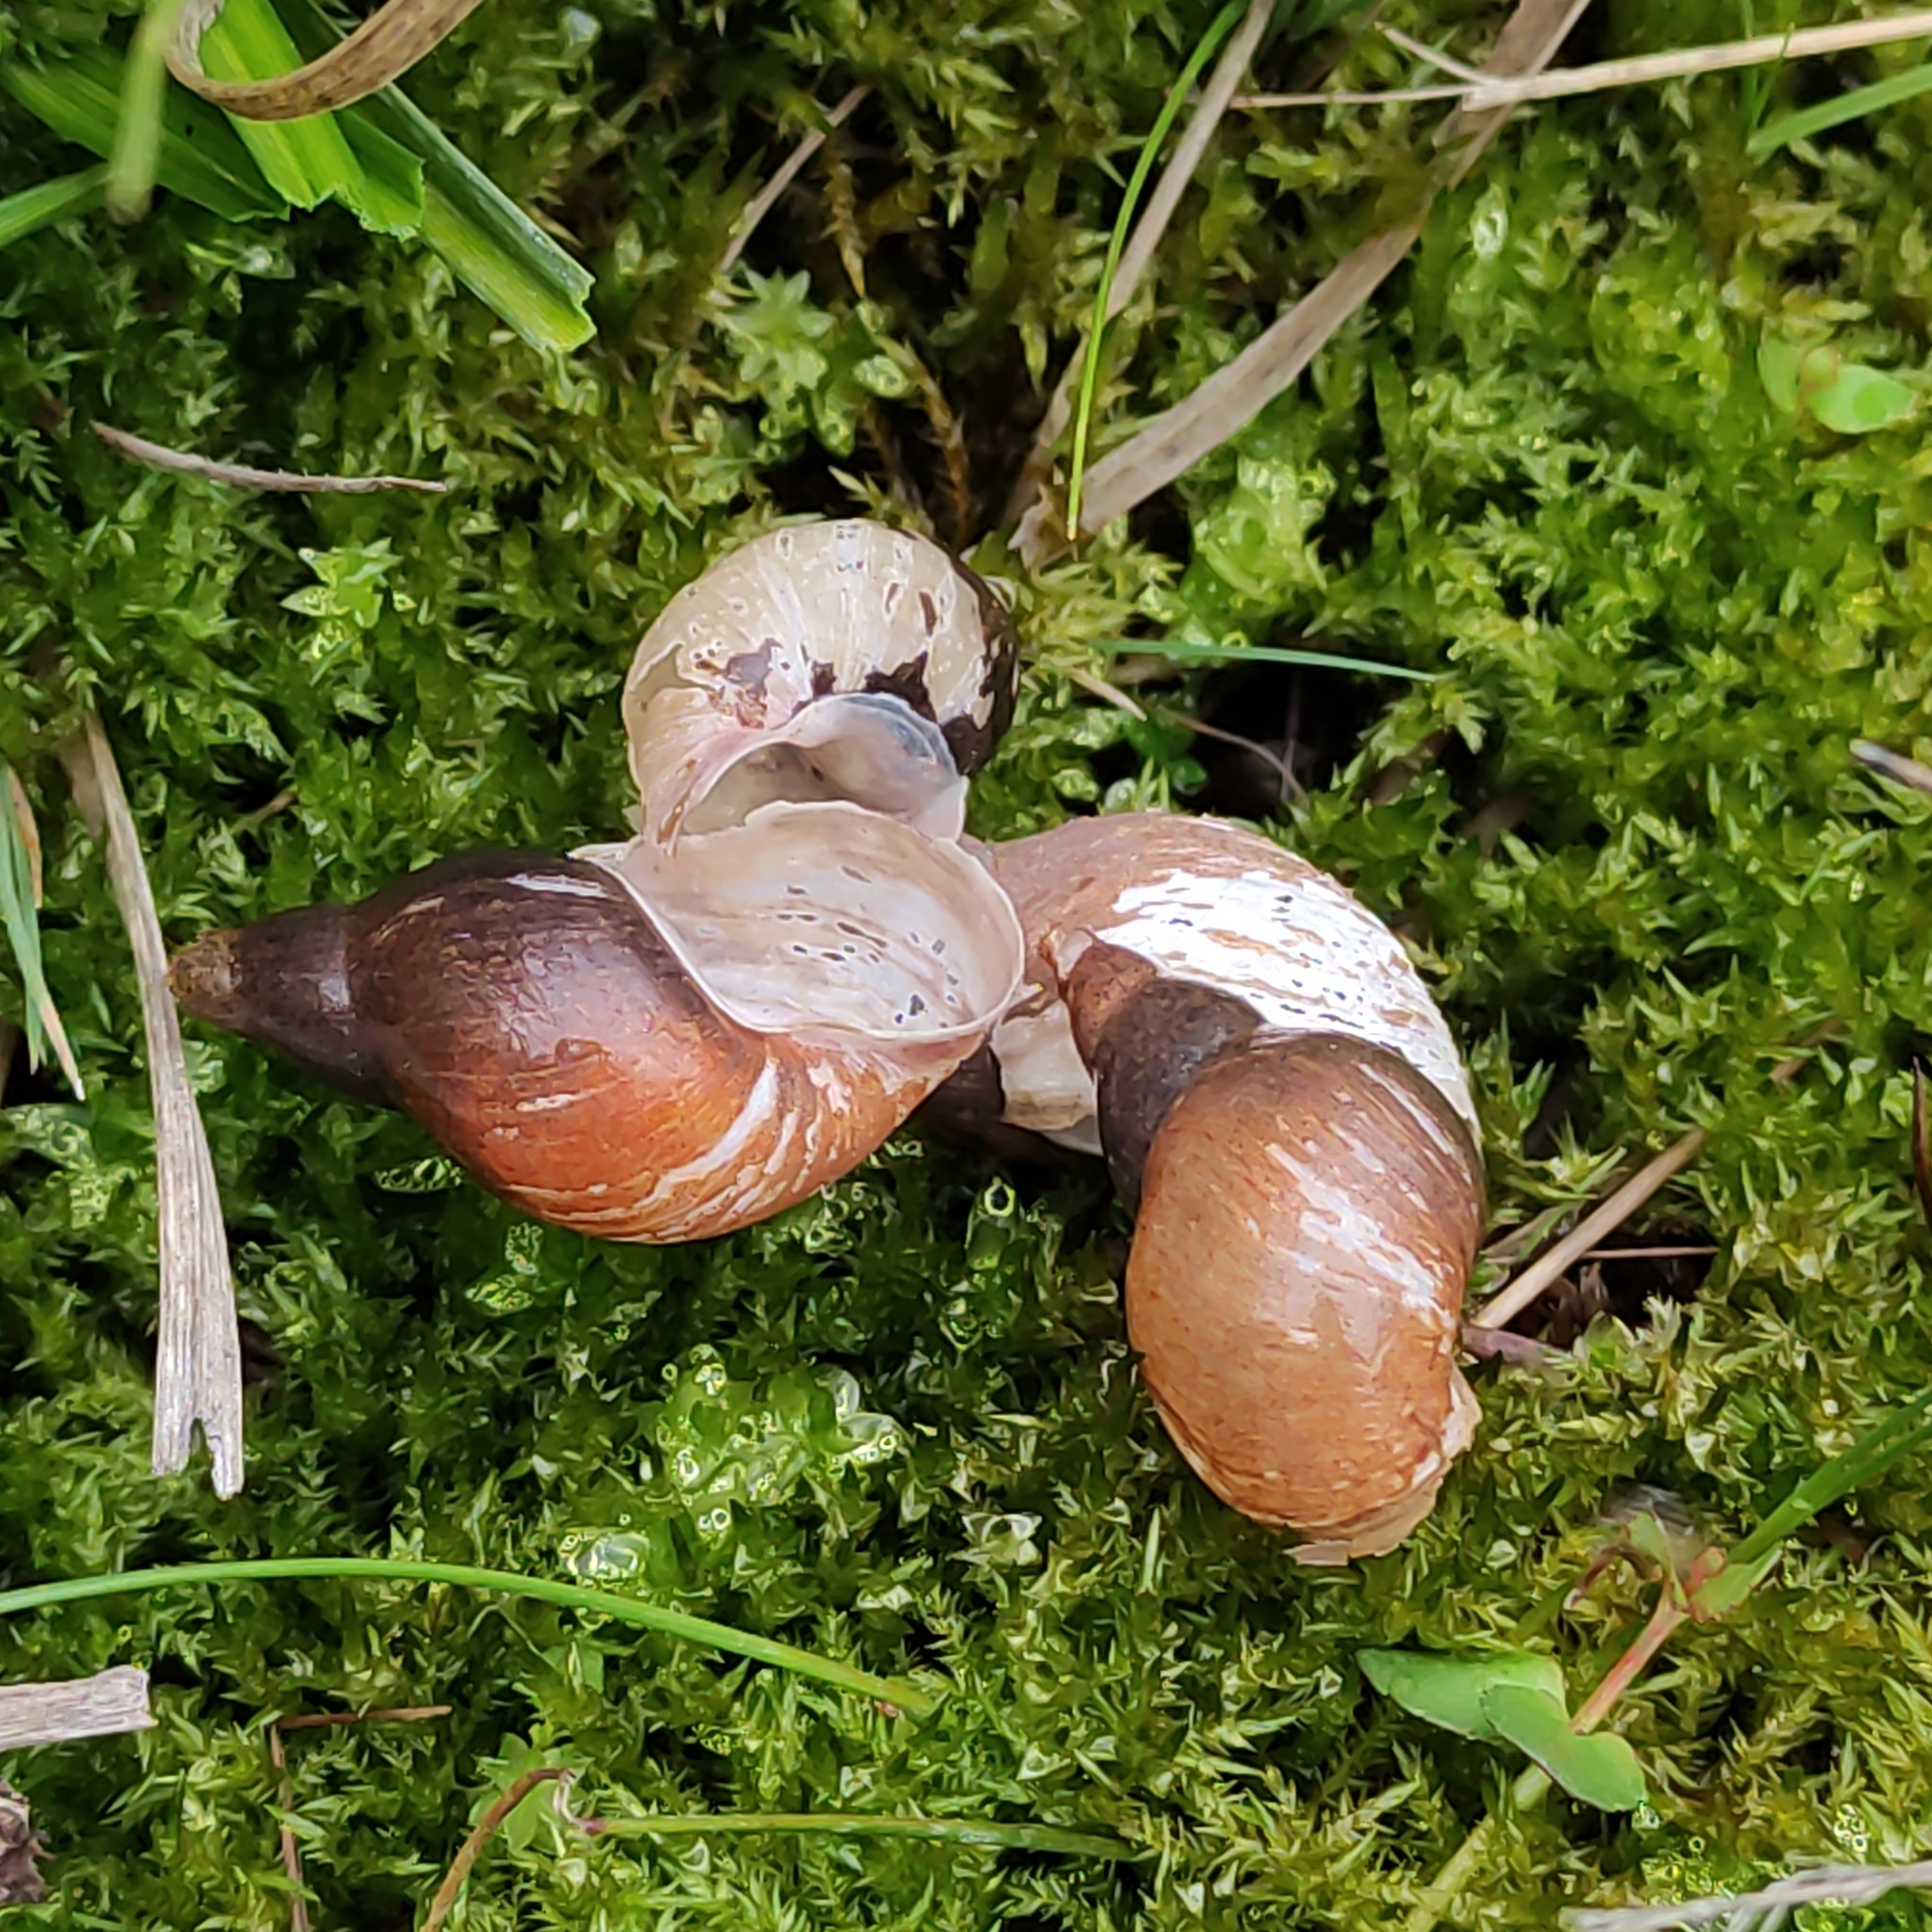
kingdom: Animalia
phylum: Mollusca
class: Gastropoda
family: Lymnaeidae
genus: Lymnaea
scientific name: Lymnaea stagnalis
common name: Great pond snail
